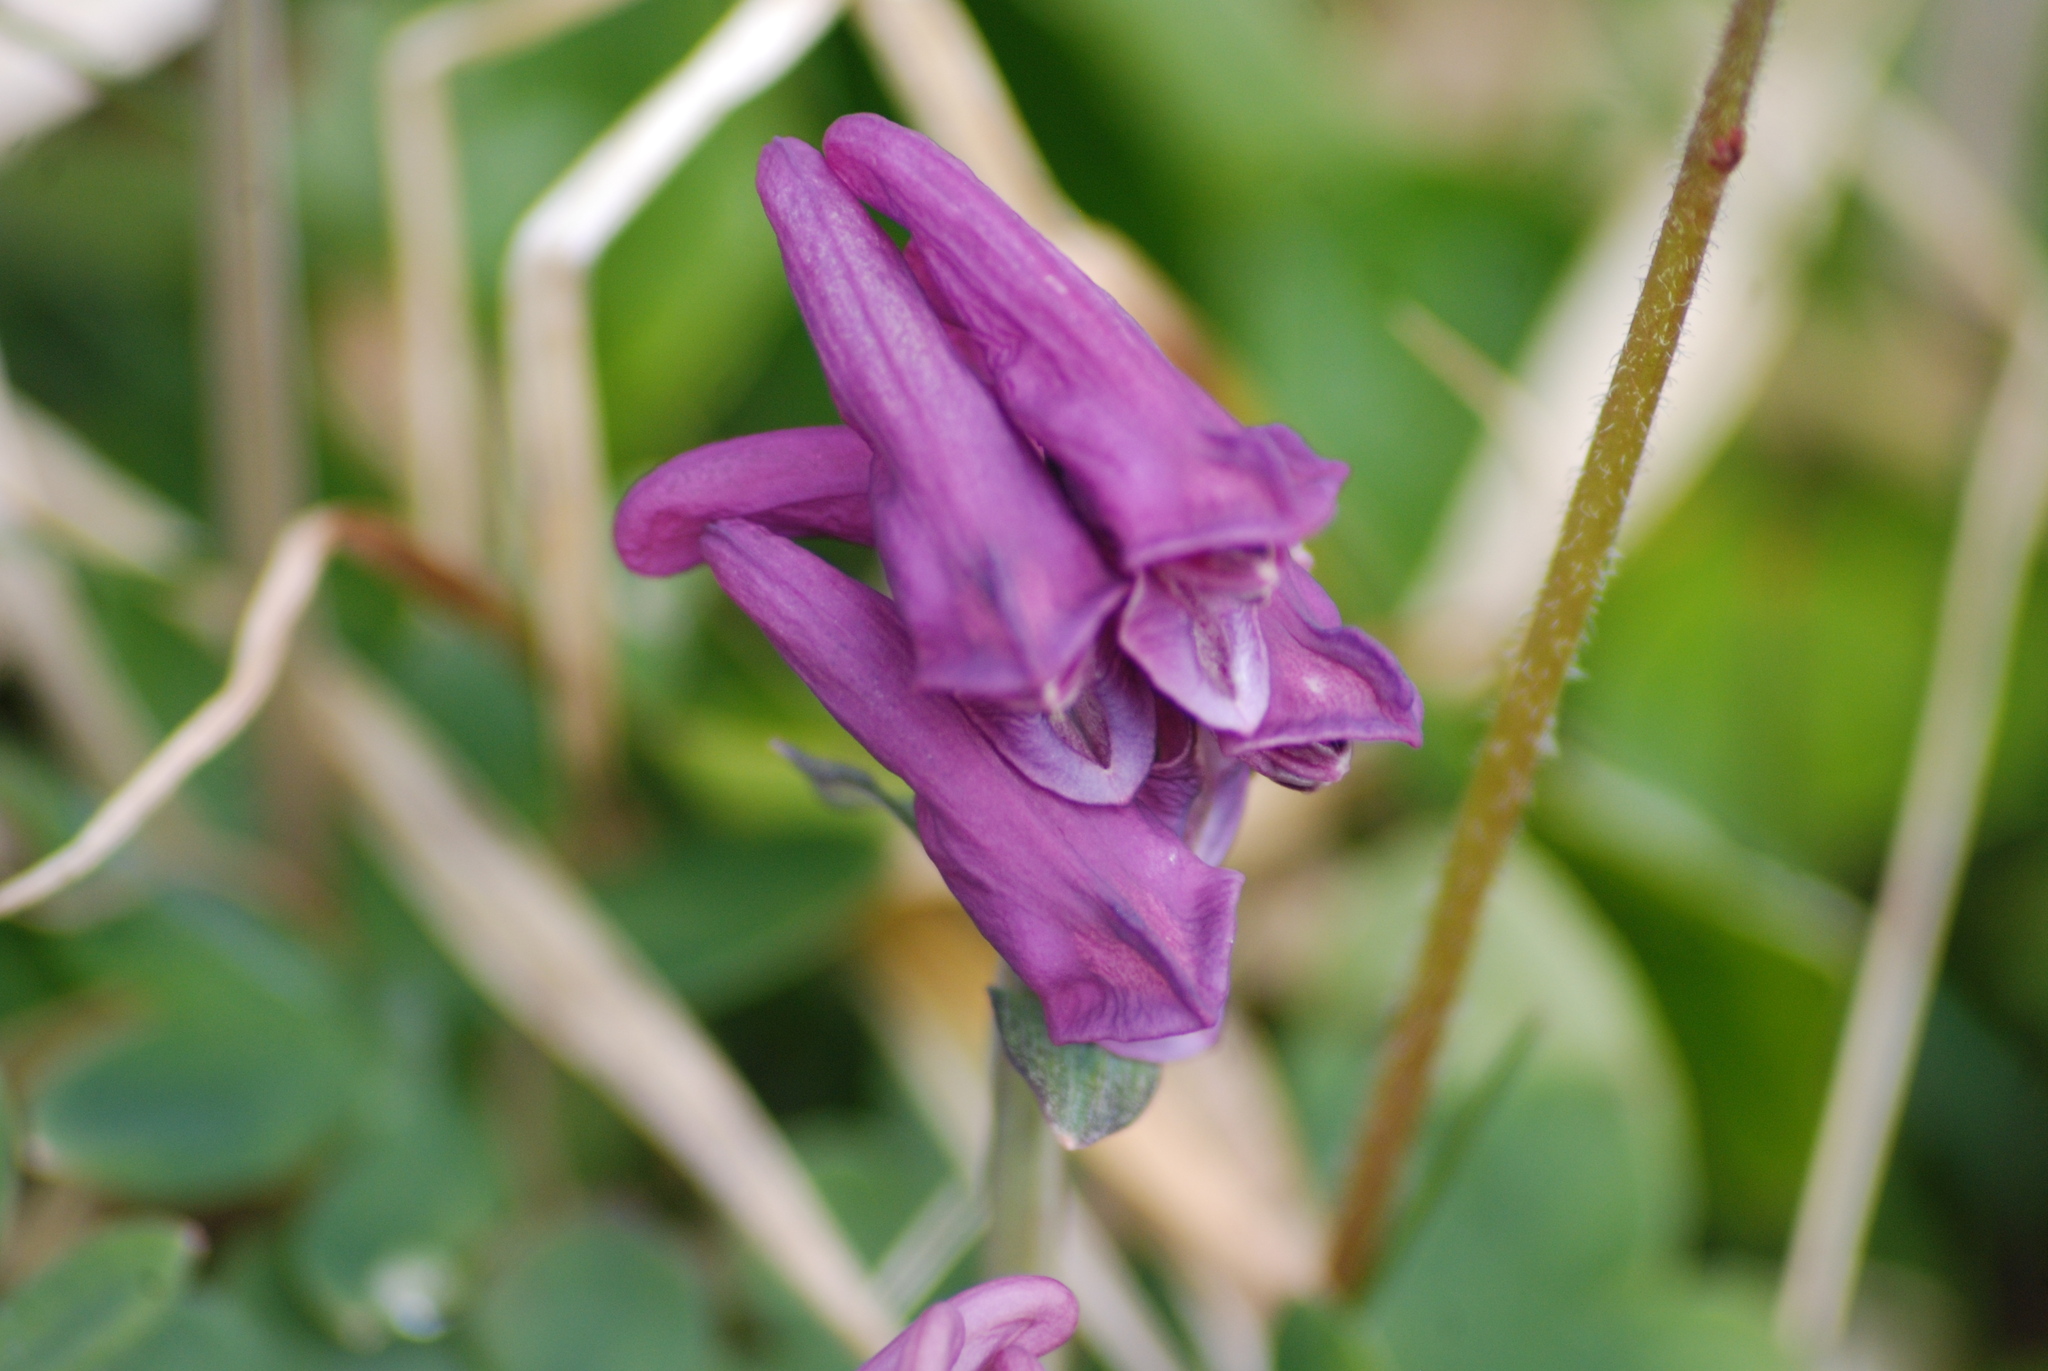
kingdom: Plantae
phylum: Tracheophyta
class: Magnoliopsida
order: Ranunculales
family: Papaveraceae
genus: Corydalis
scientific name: Corydalis arctica
